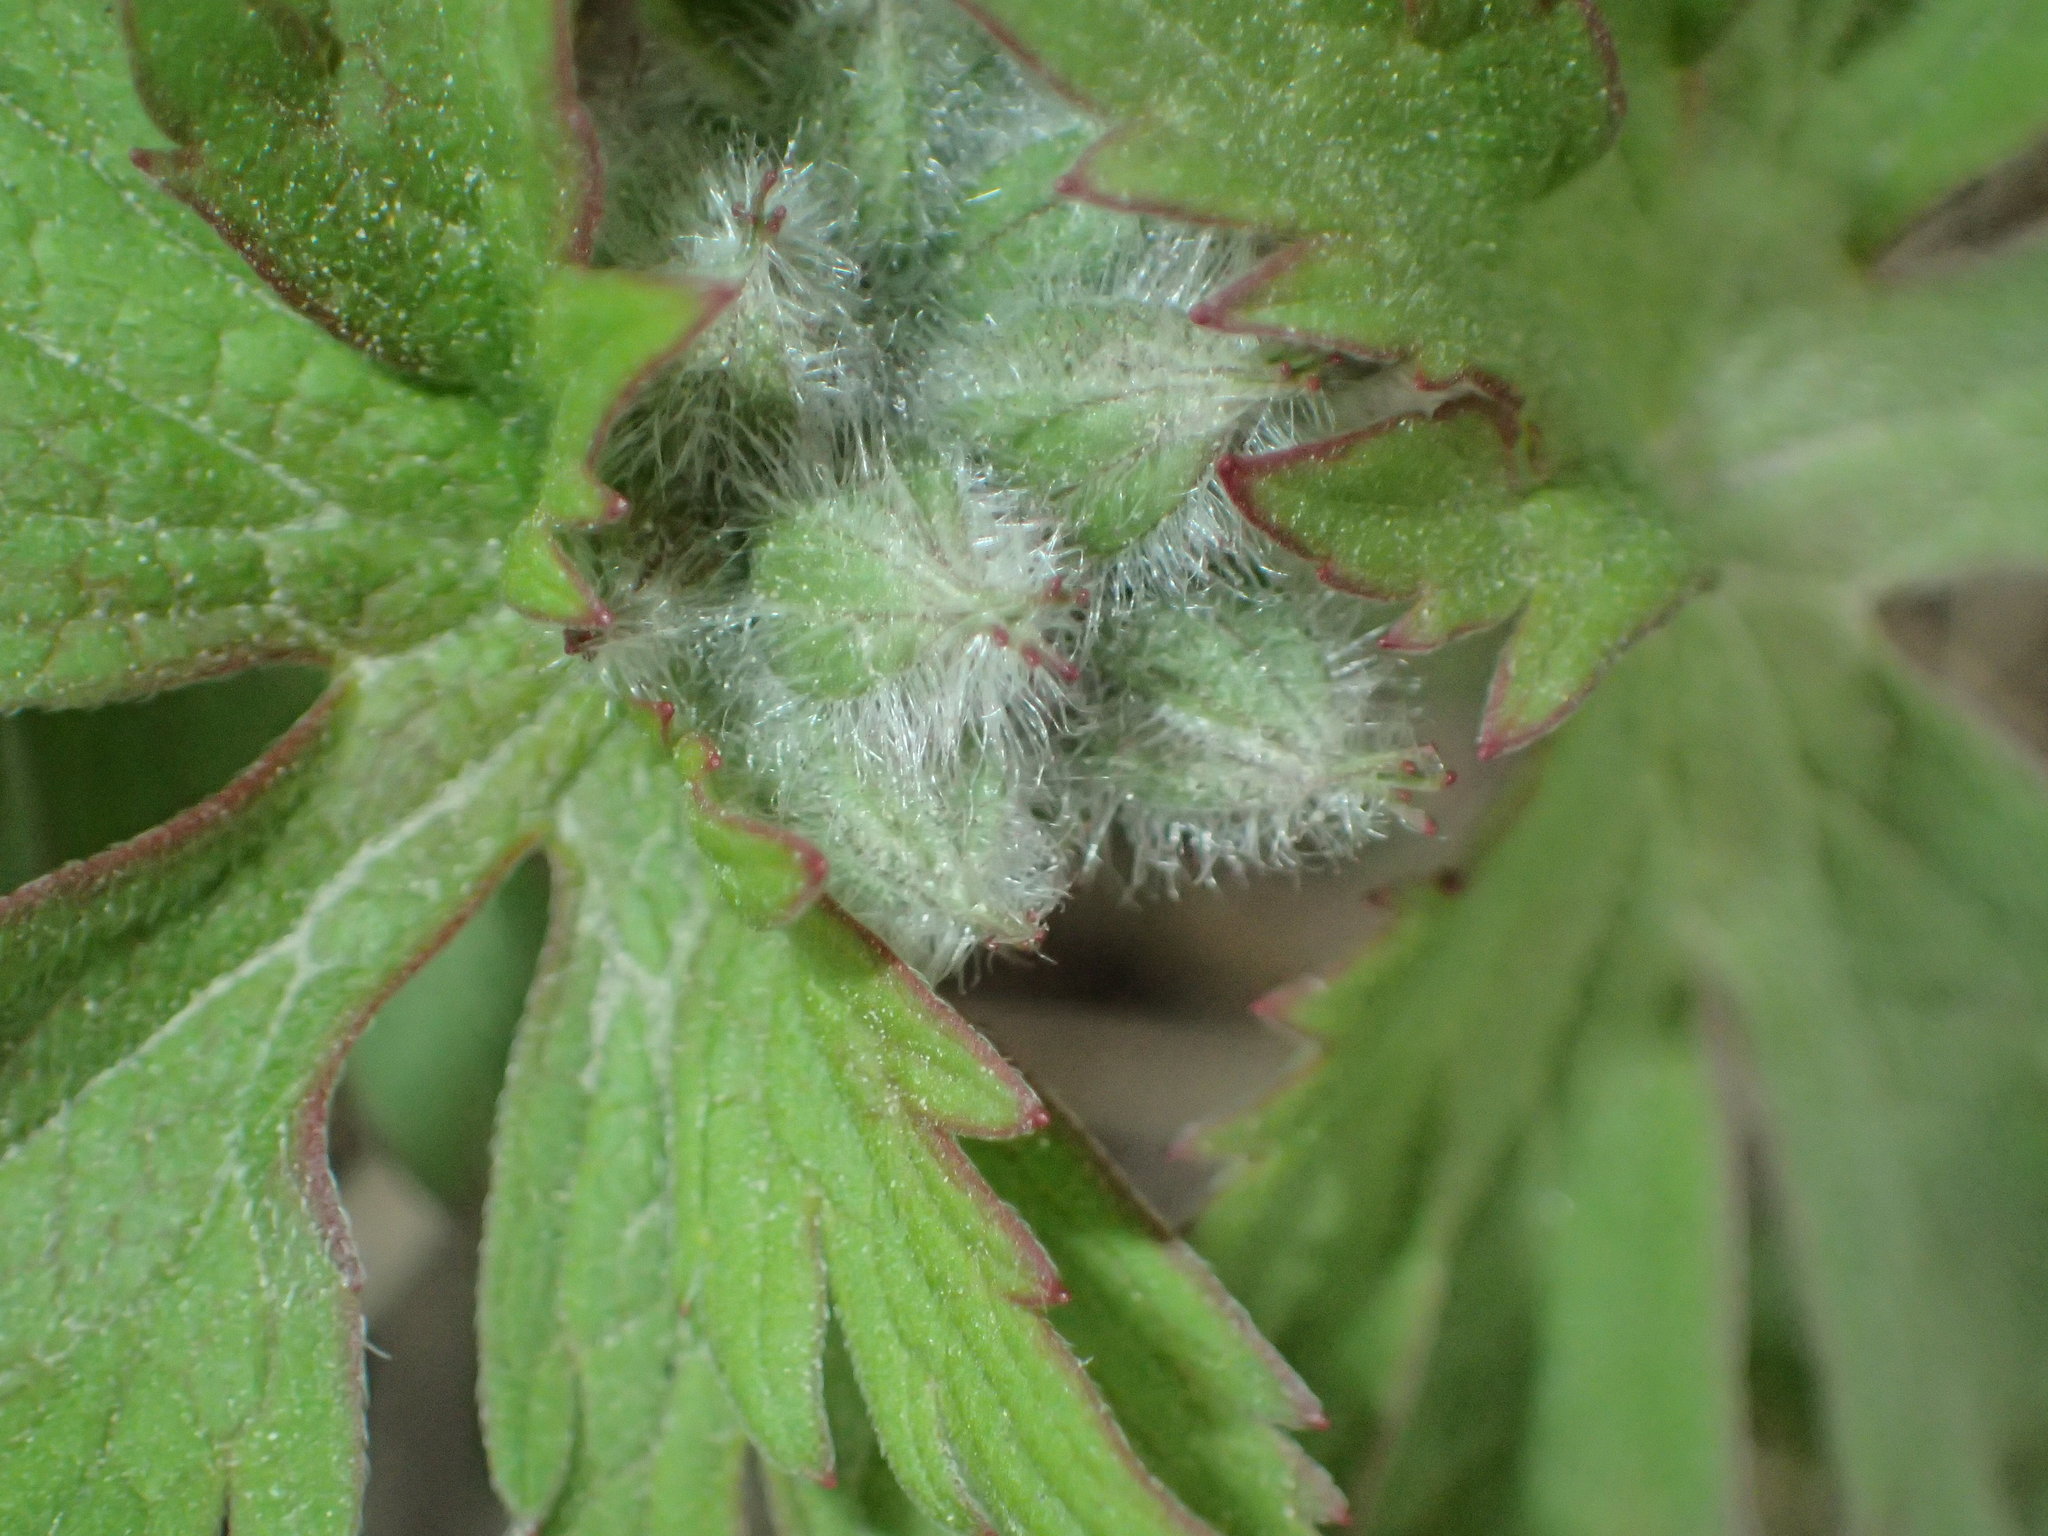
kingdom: Plantae
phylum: Tracheophyta
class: Magnoliopsida
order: Geraniales
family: Geraniaceae
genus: Geranium
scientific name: Geranium erianthum
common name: Northern crane's-bill
